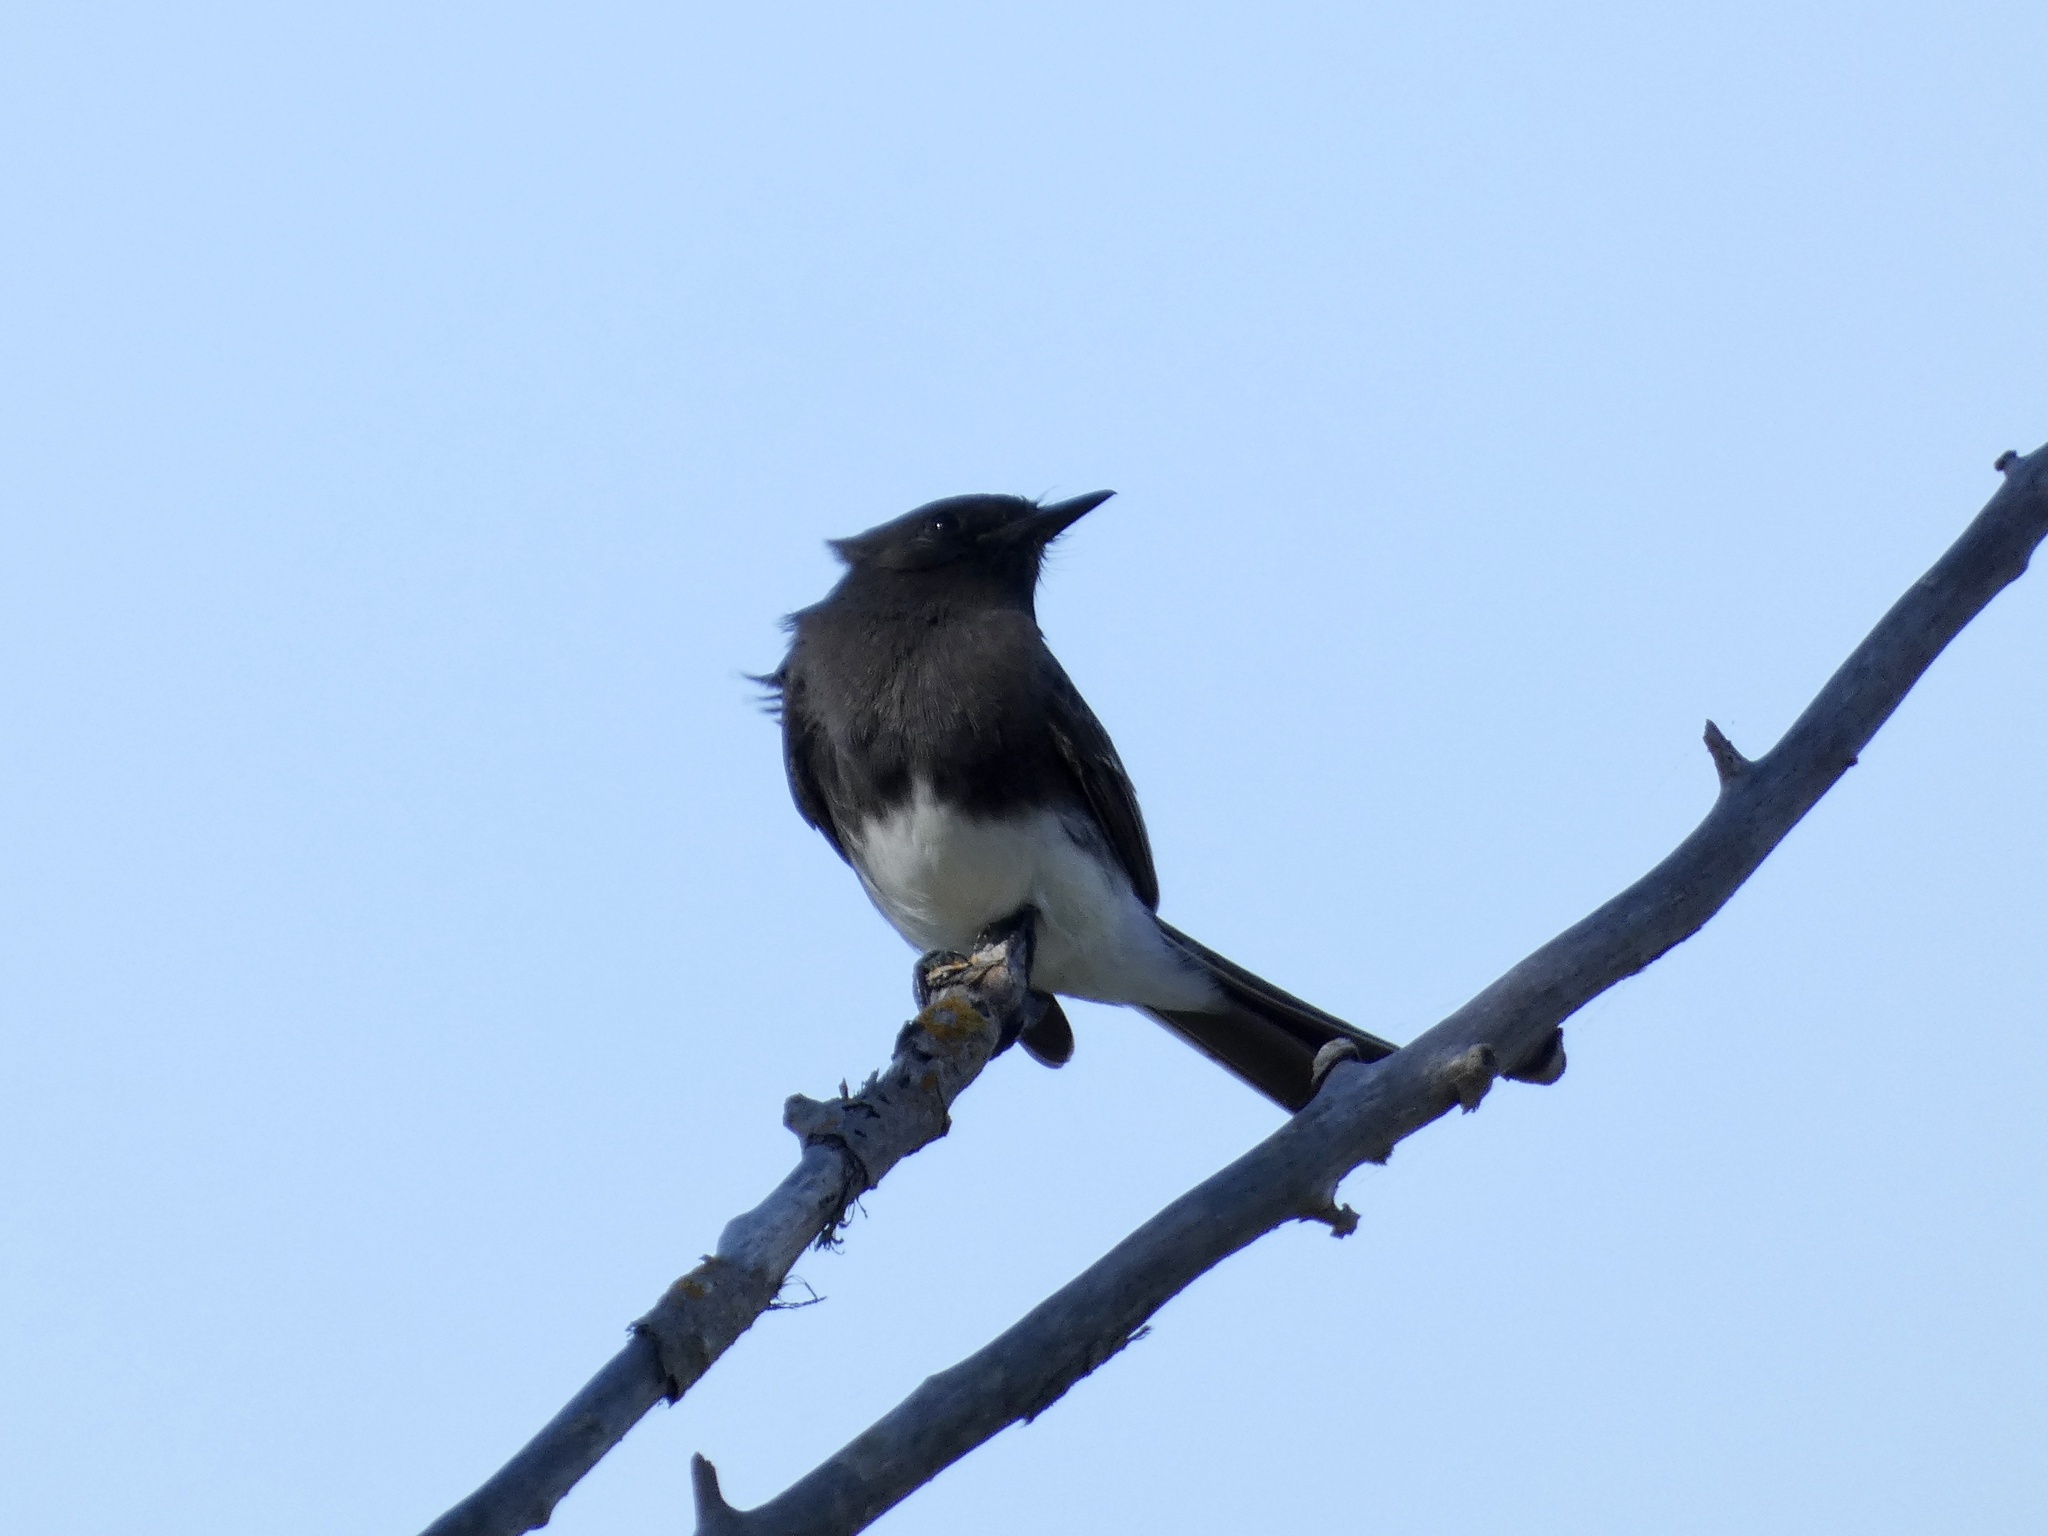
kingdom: Animalia
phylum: Chordata
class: Aves
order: Passeriformes
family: Tyrannidae
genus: Sayornis
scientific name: Sayornis nigricans
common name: Black phoebe
